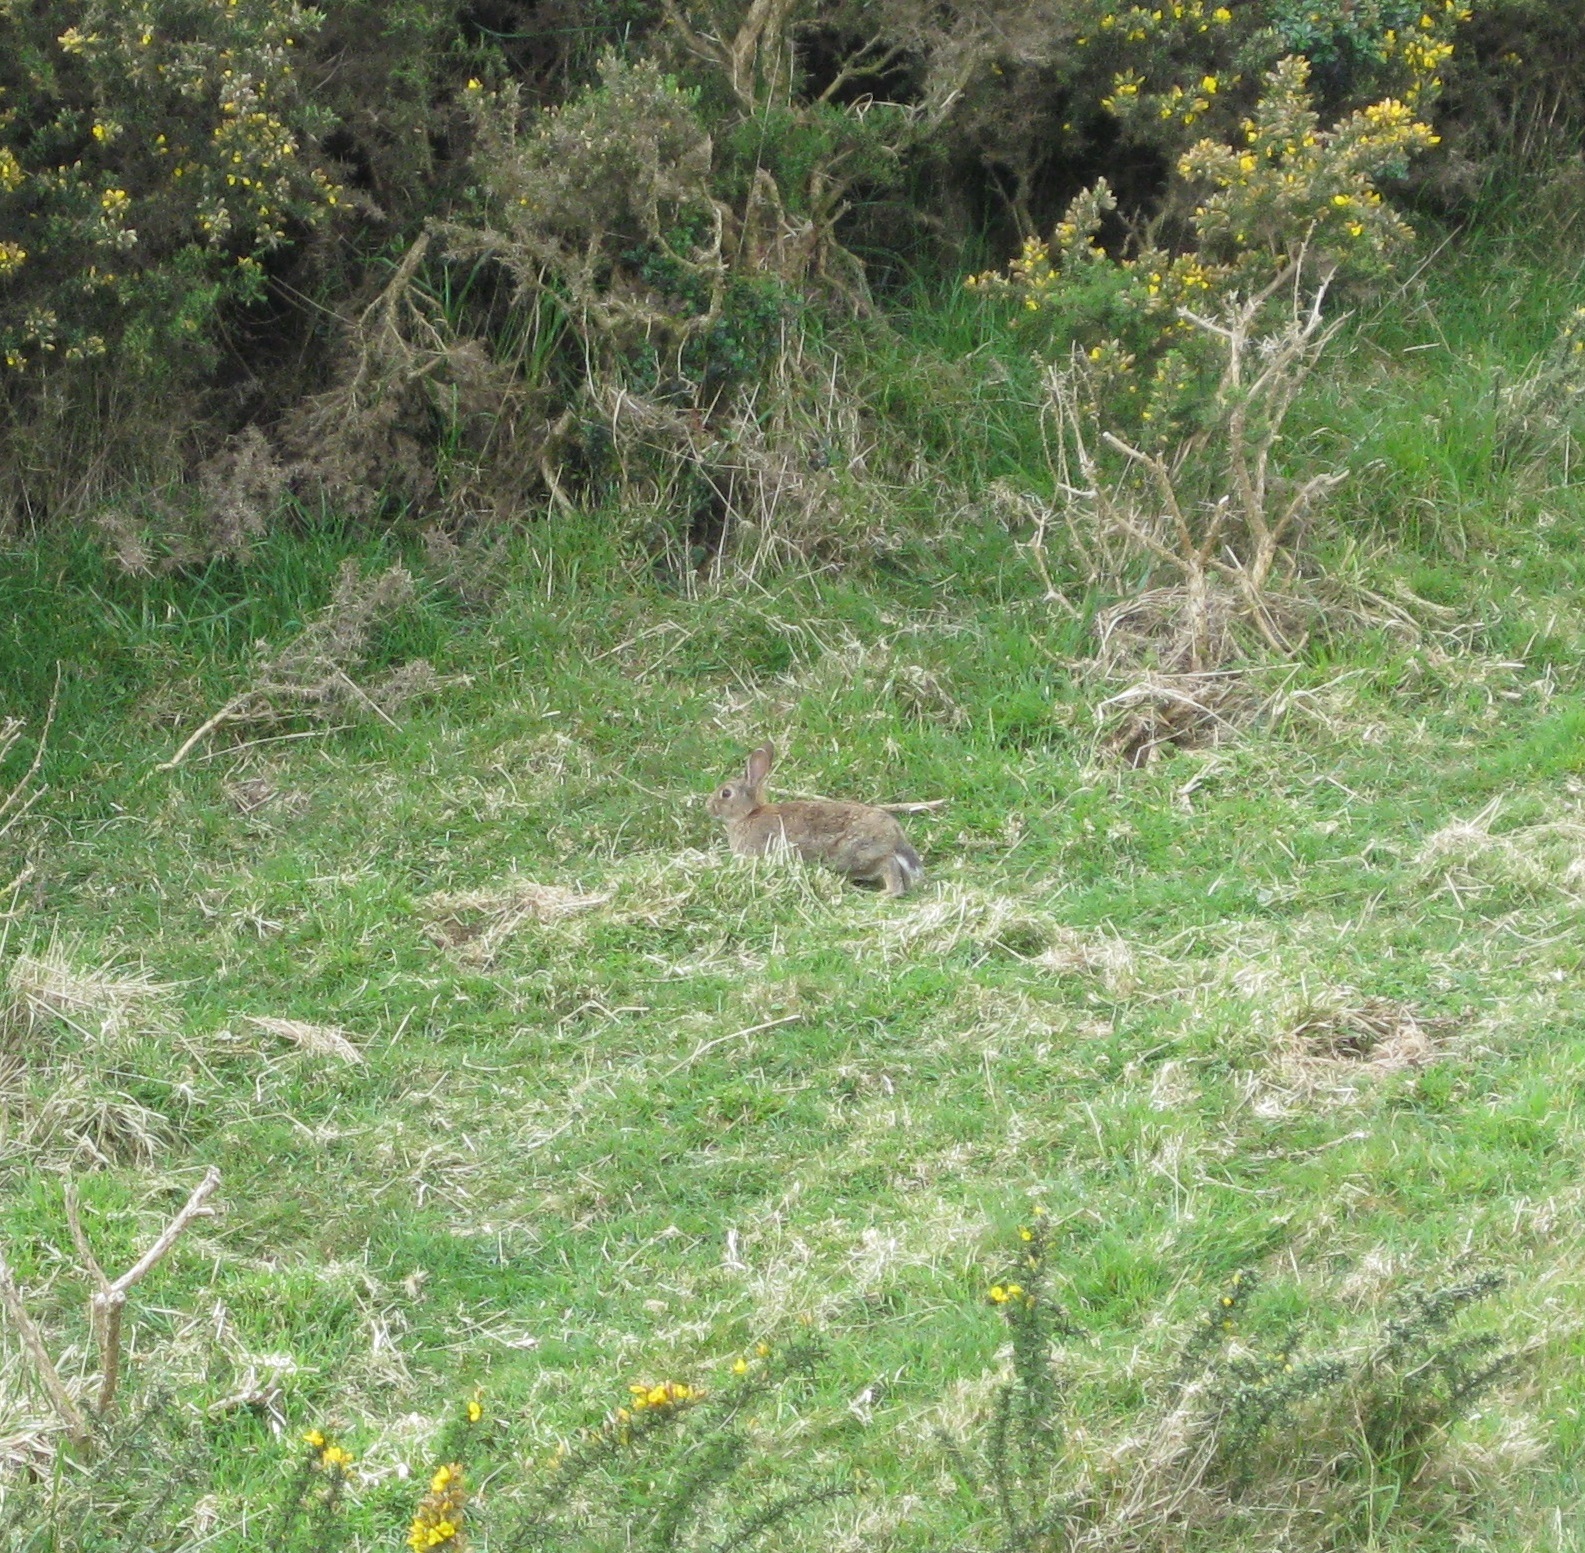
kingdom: Animalia
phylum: Chordata
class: Mammalia
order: Lagomorpha
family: Leporidae
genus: Oryctolagus
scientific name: Oryctolagus cuniculus
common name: European rabbit
